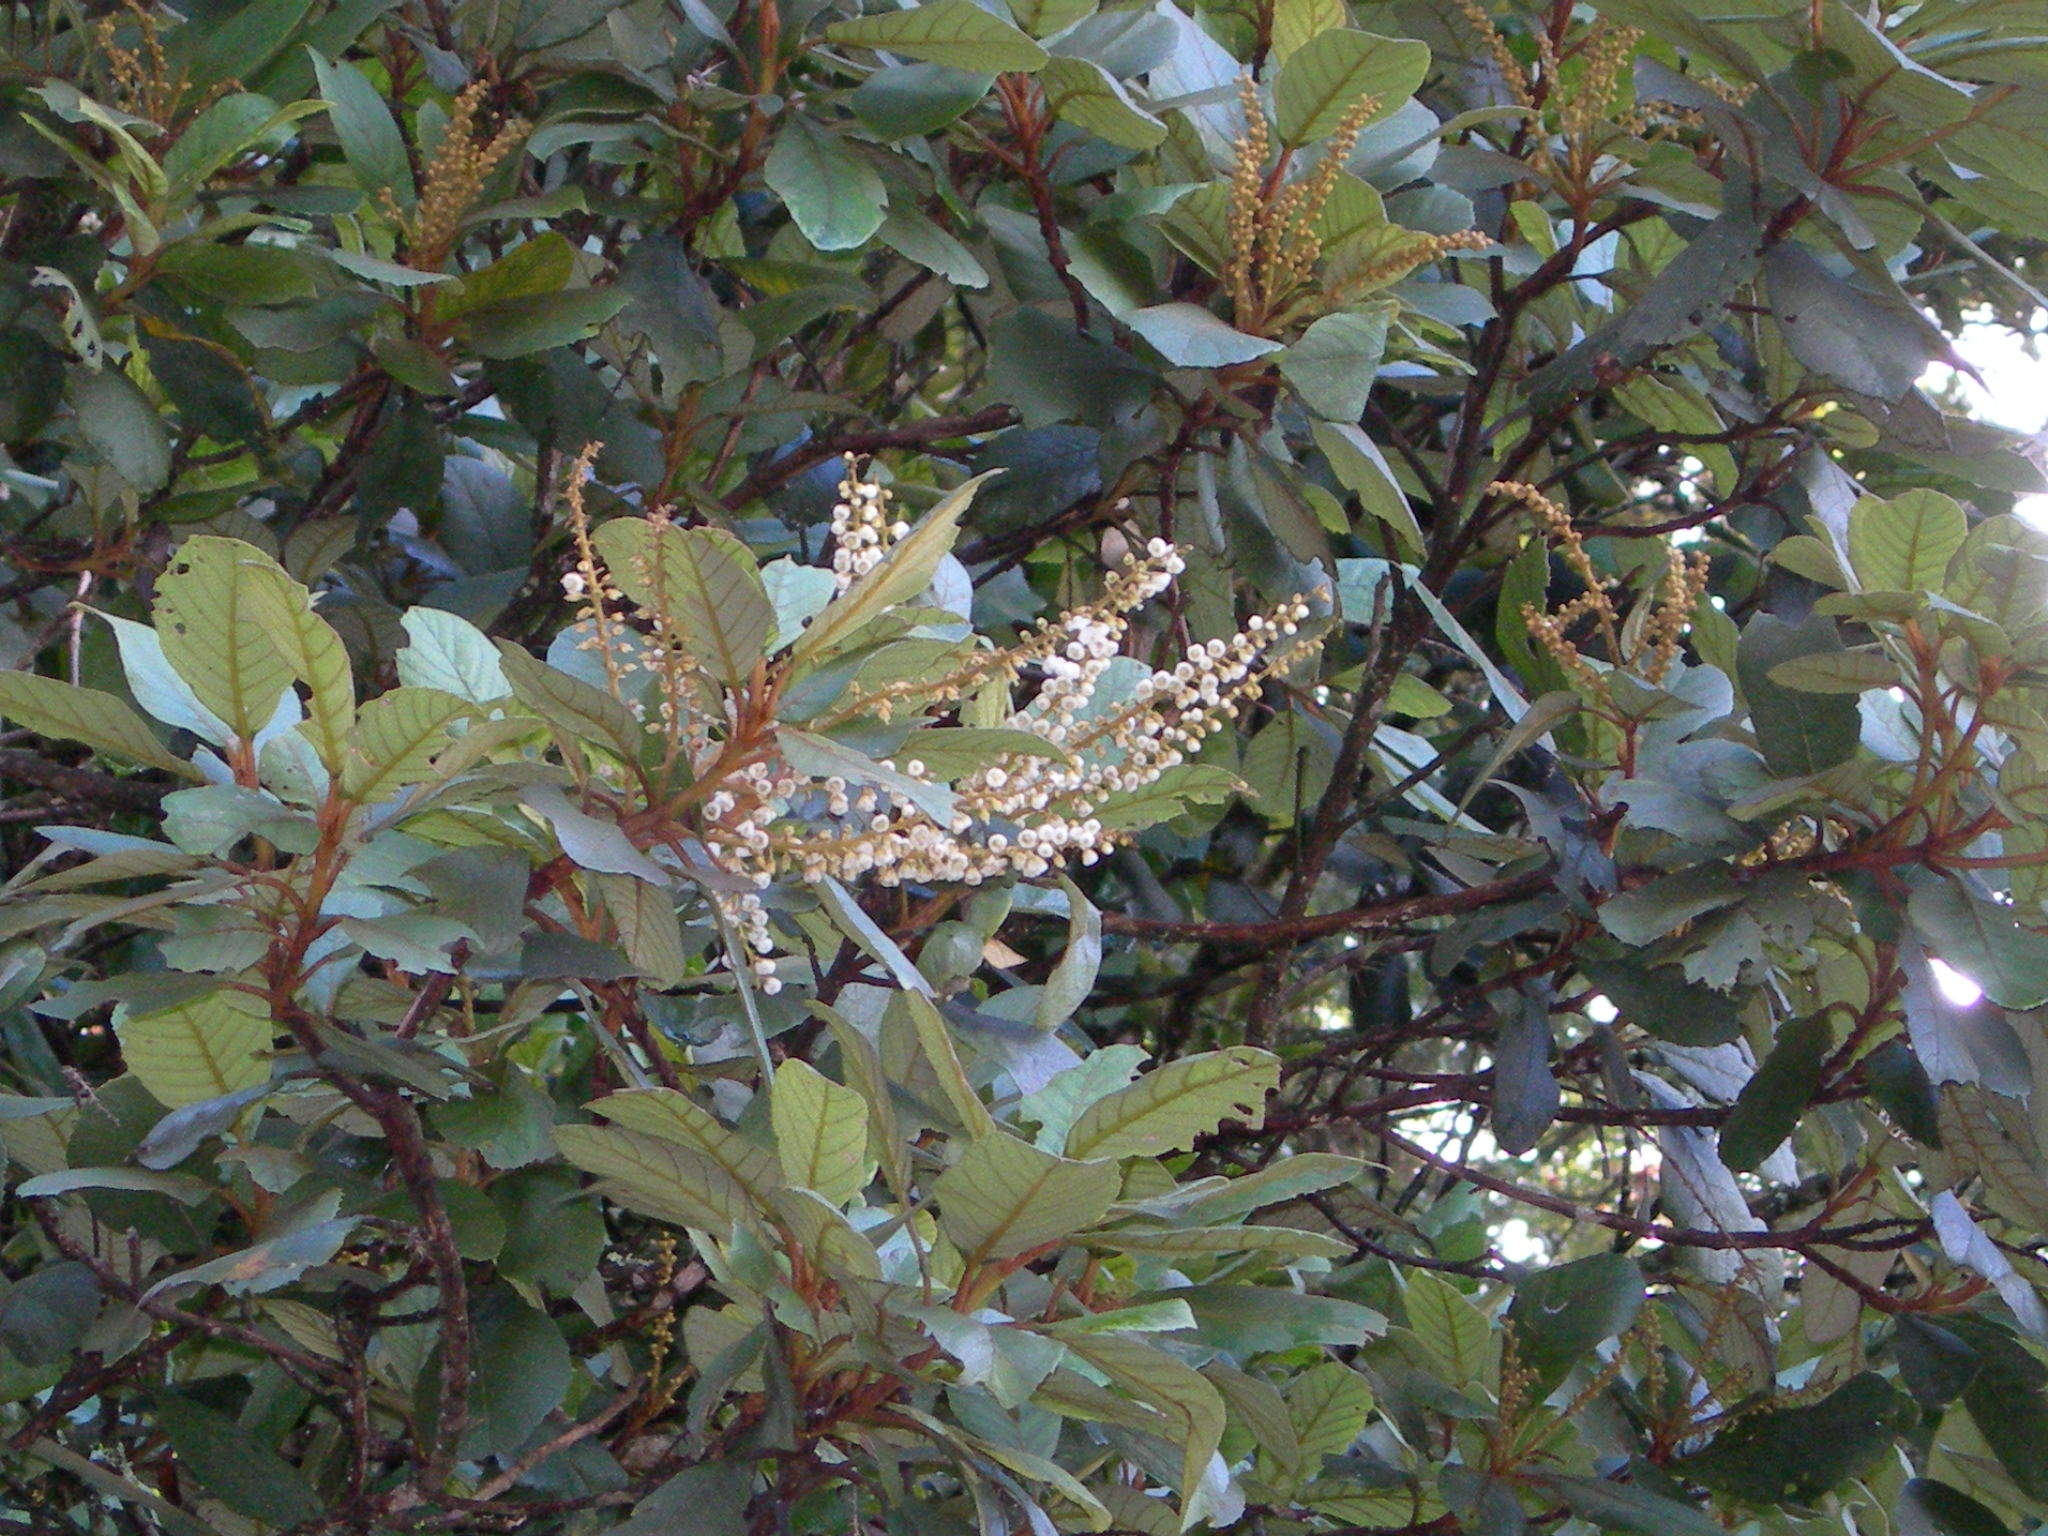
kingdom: Plantae
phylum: Tracheophyta
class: Magnoliopsida
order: Ericales
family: Clethraceae
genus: Clethra
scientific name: Clethra purpusii
